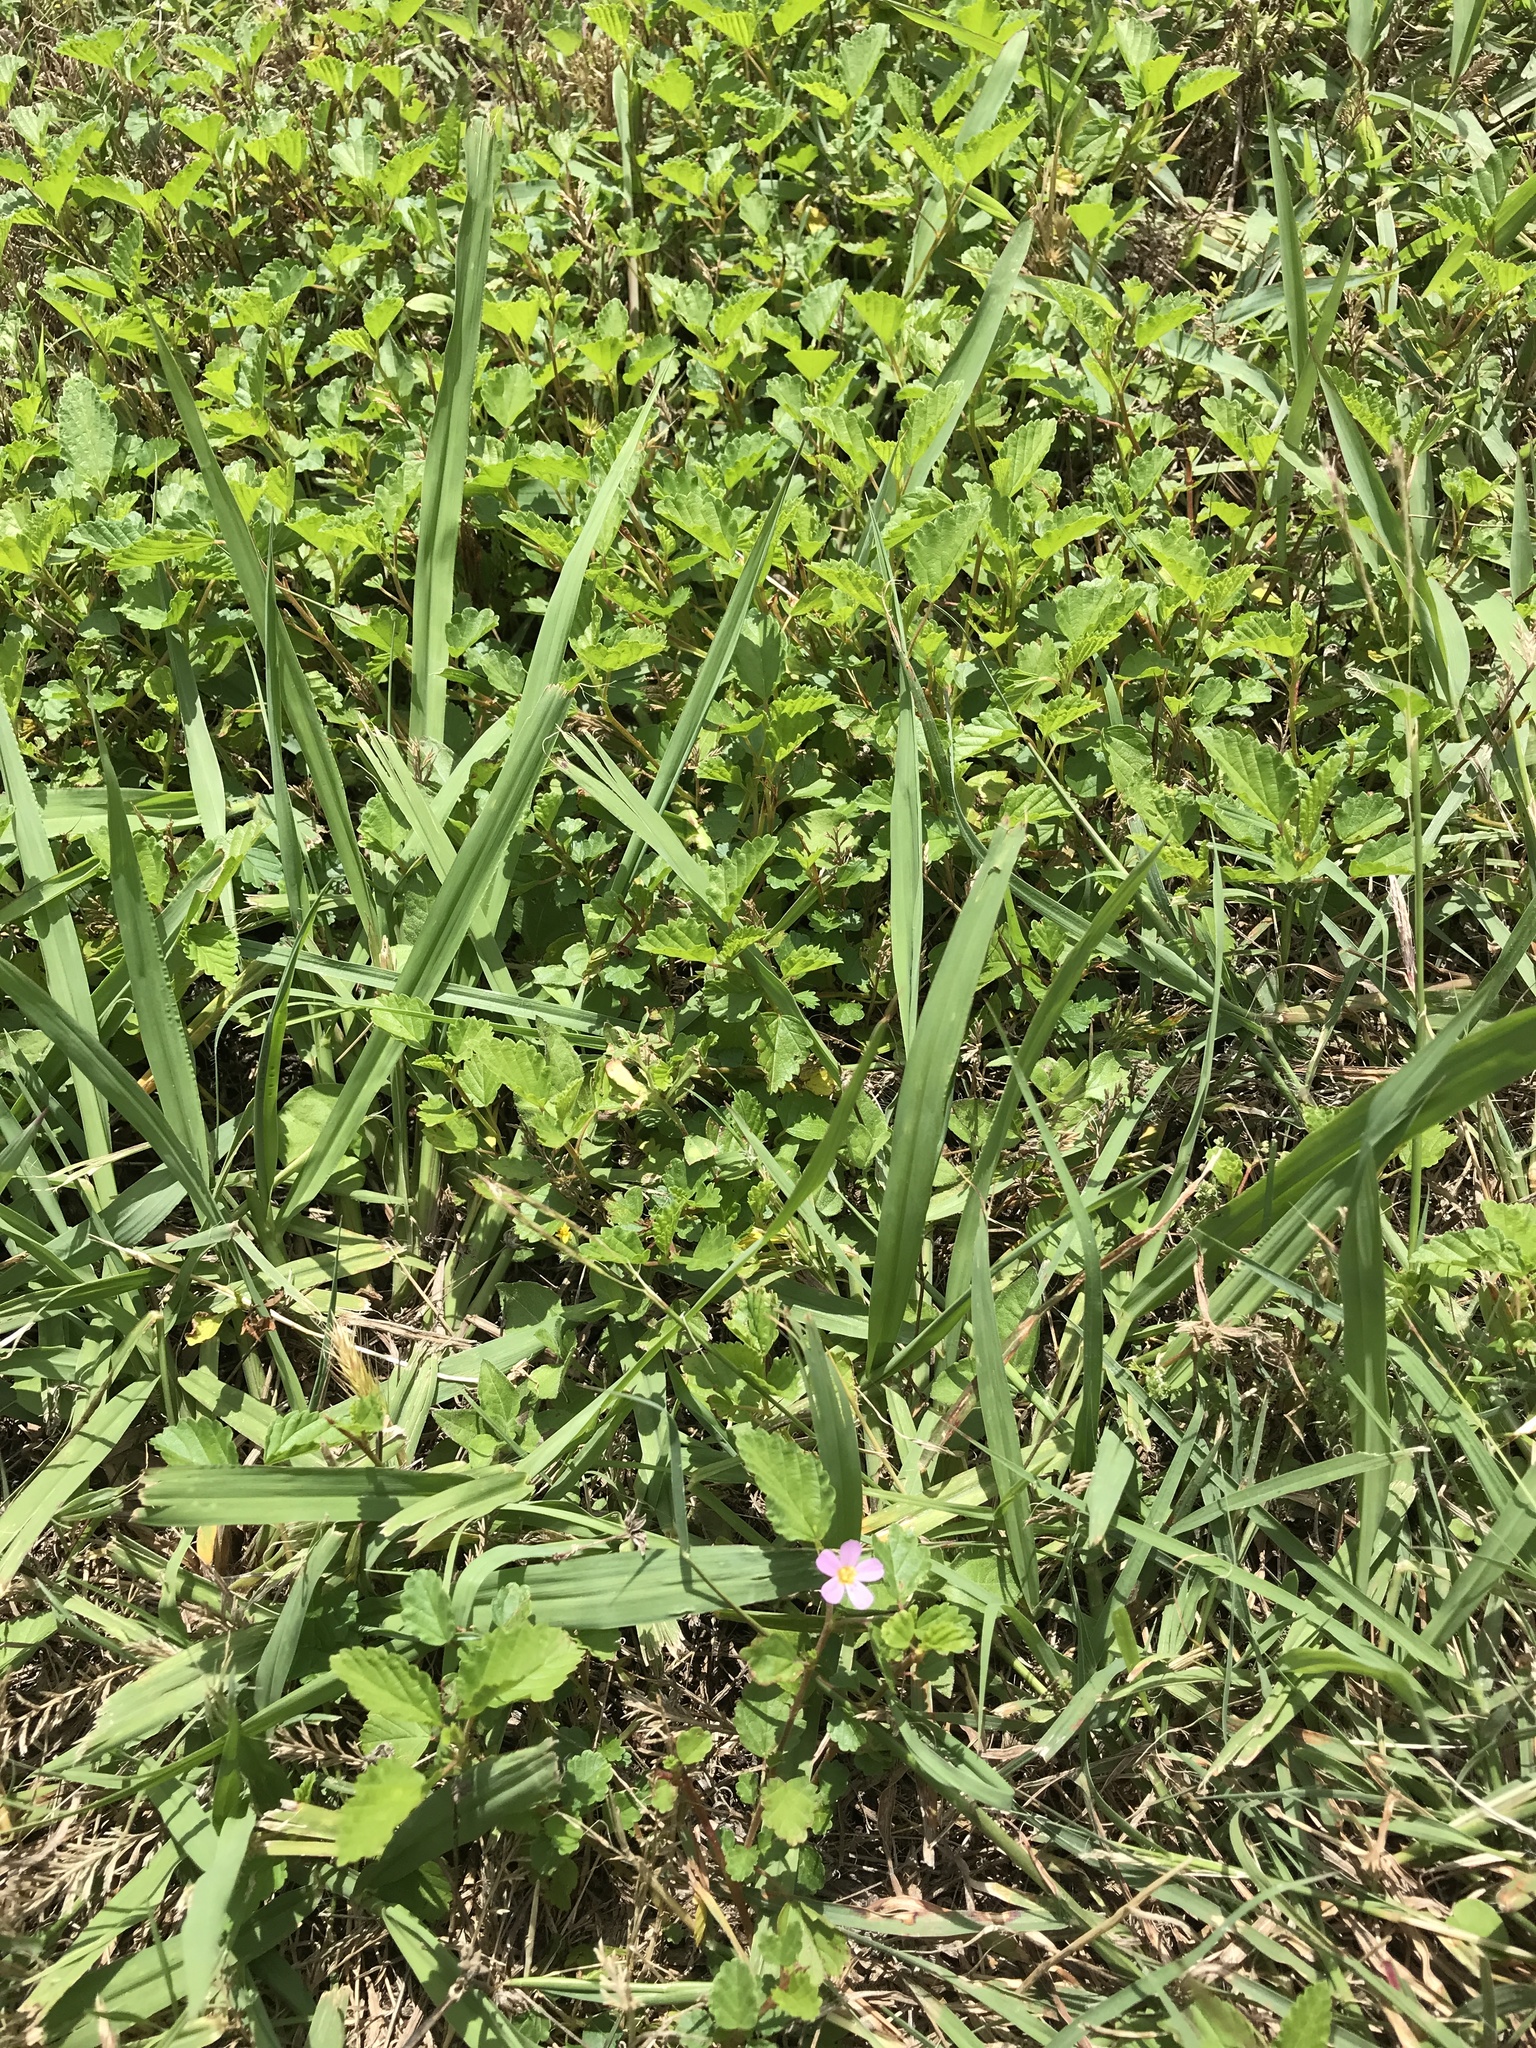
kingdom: Plantae
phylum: Tracheophyta
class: Magnoliopsida
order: Malvales
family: Malvaceae
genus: Melochia
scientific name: Melochia pyramidata
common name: Pyramidflower
